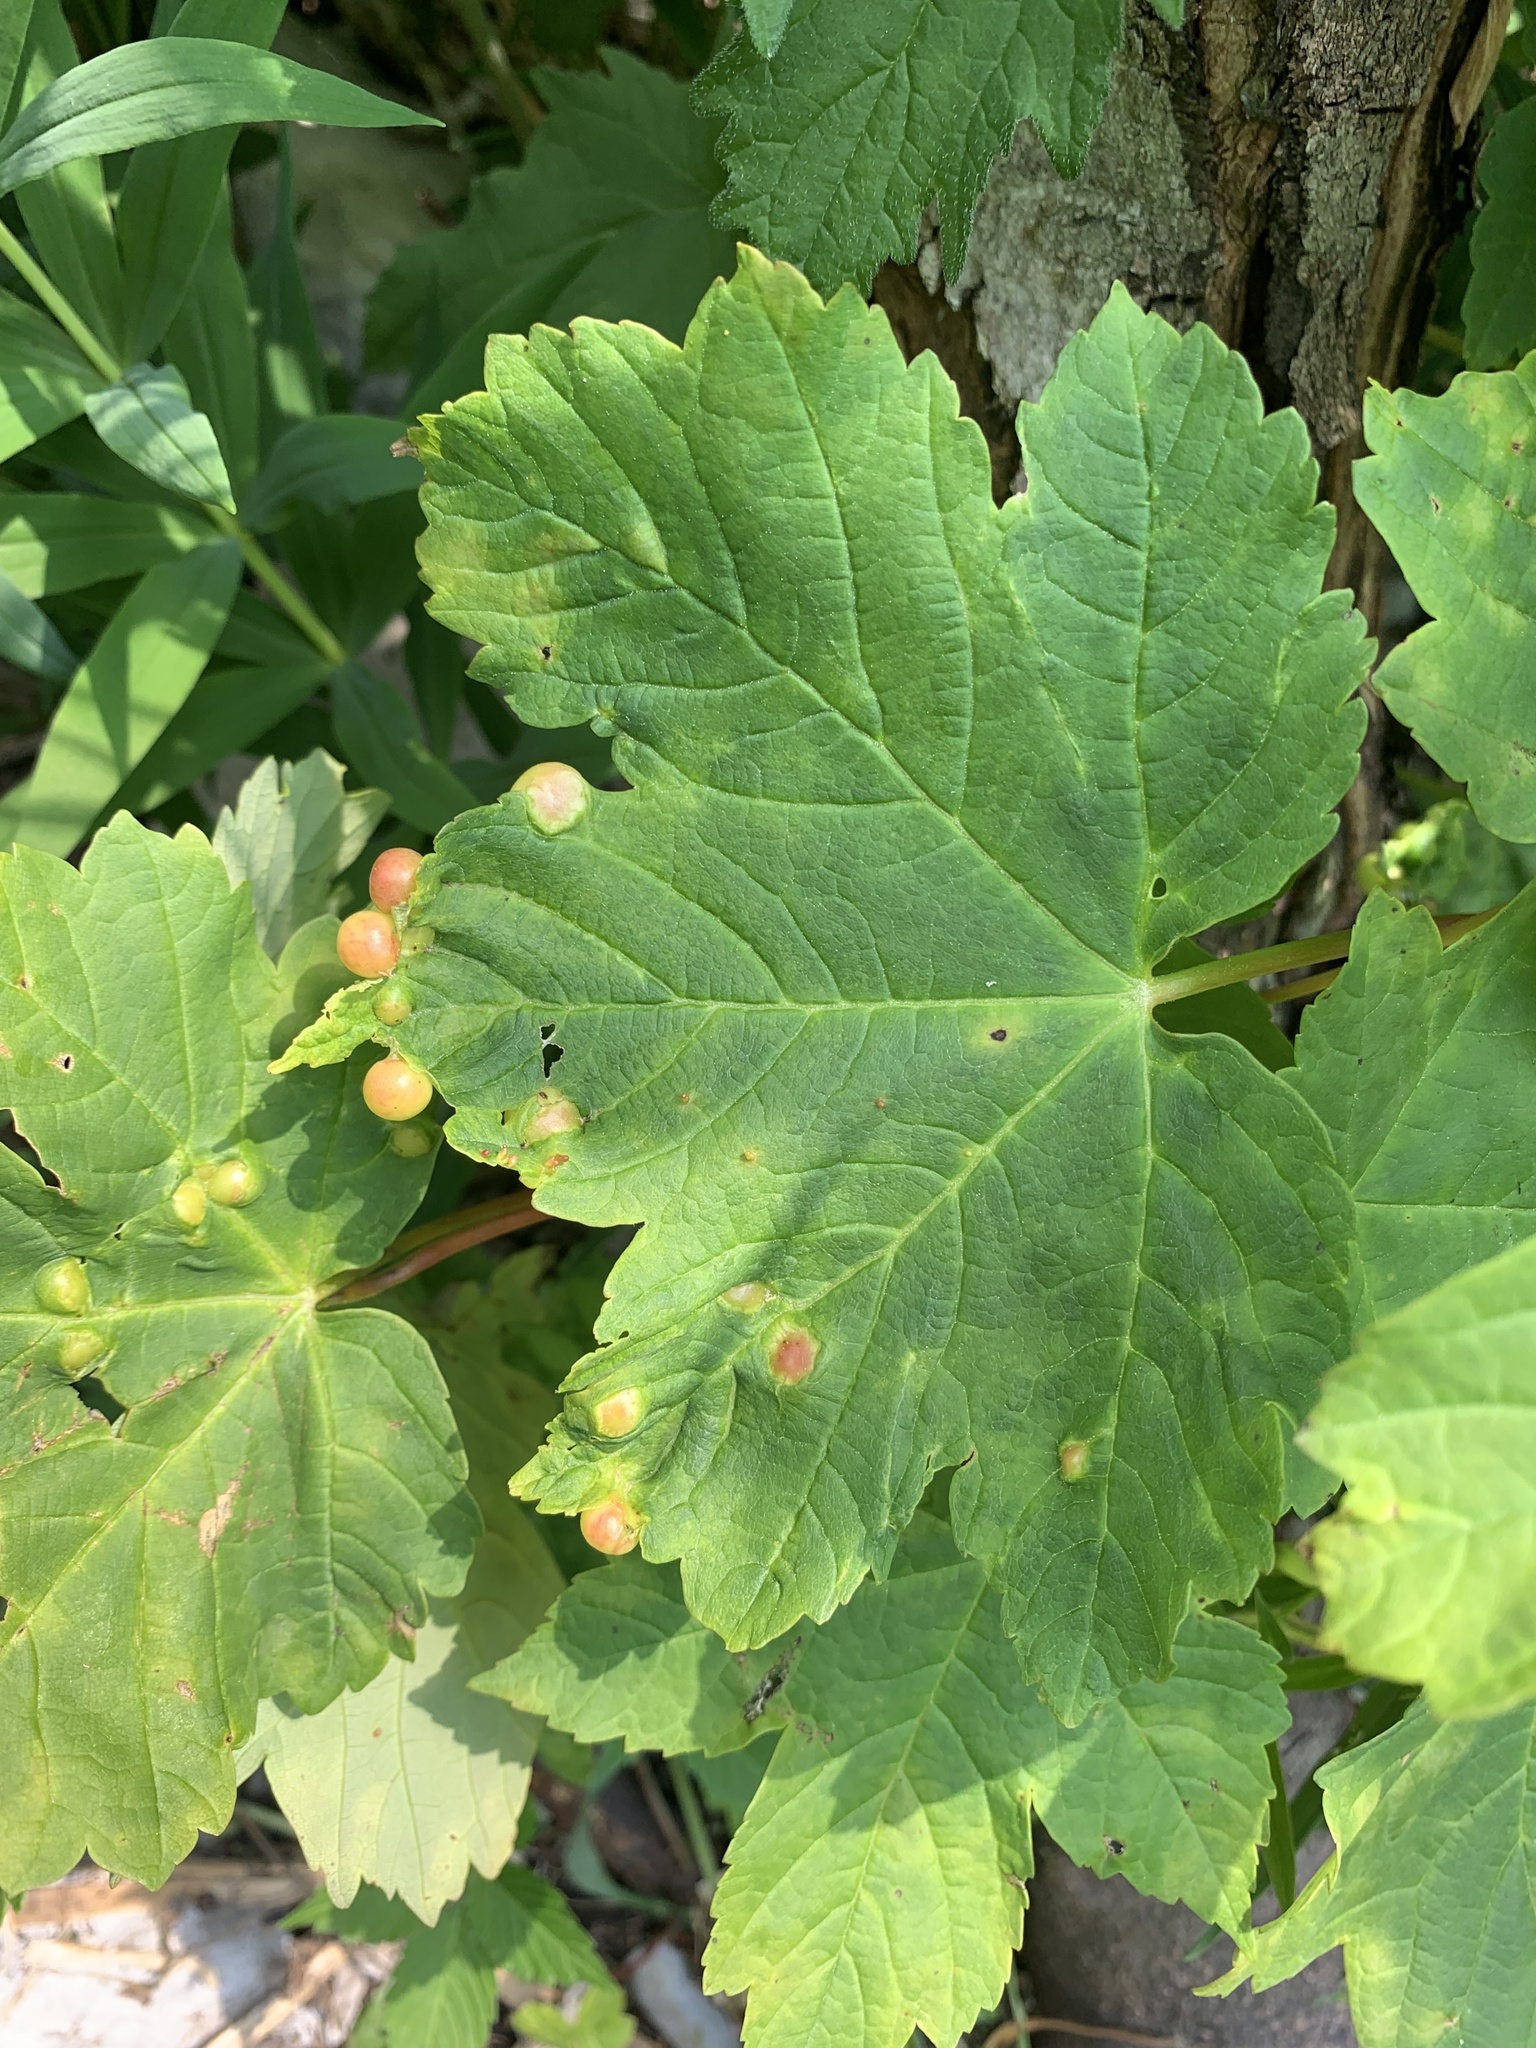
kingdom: Animalia
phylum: Arthropoda
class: Insecta
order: Hymenoptera
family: Cynipidae
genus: Pediaspis
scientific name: Pediaspis aceris
